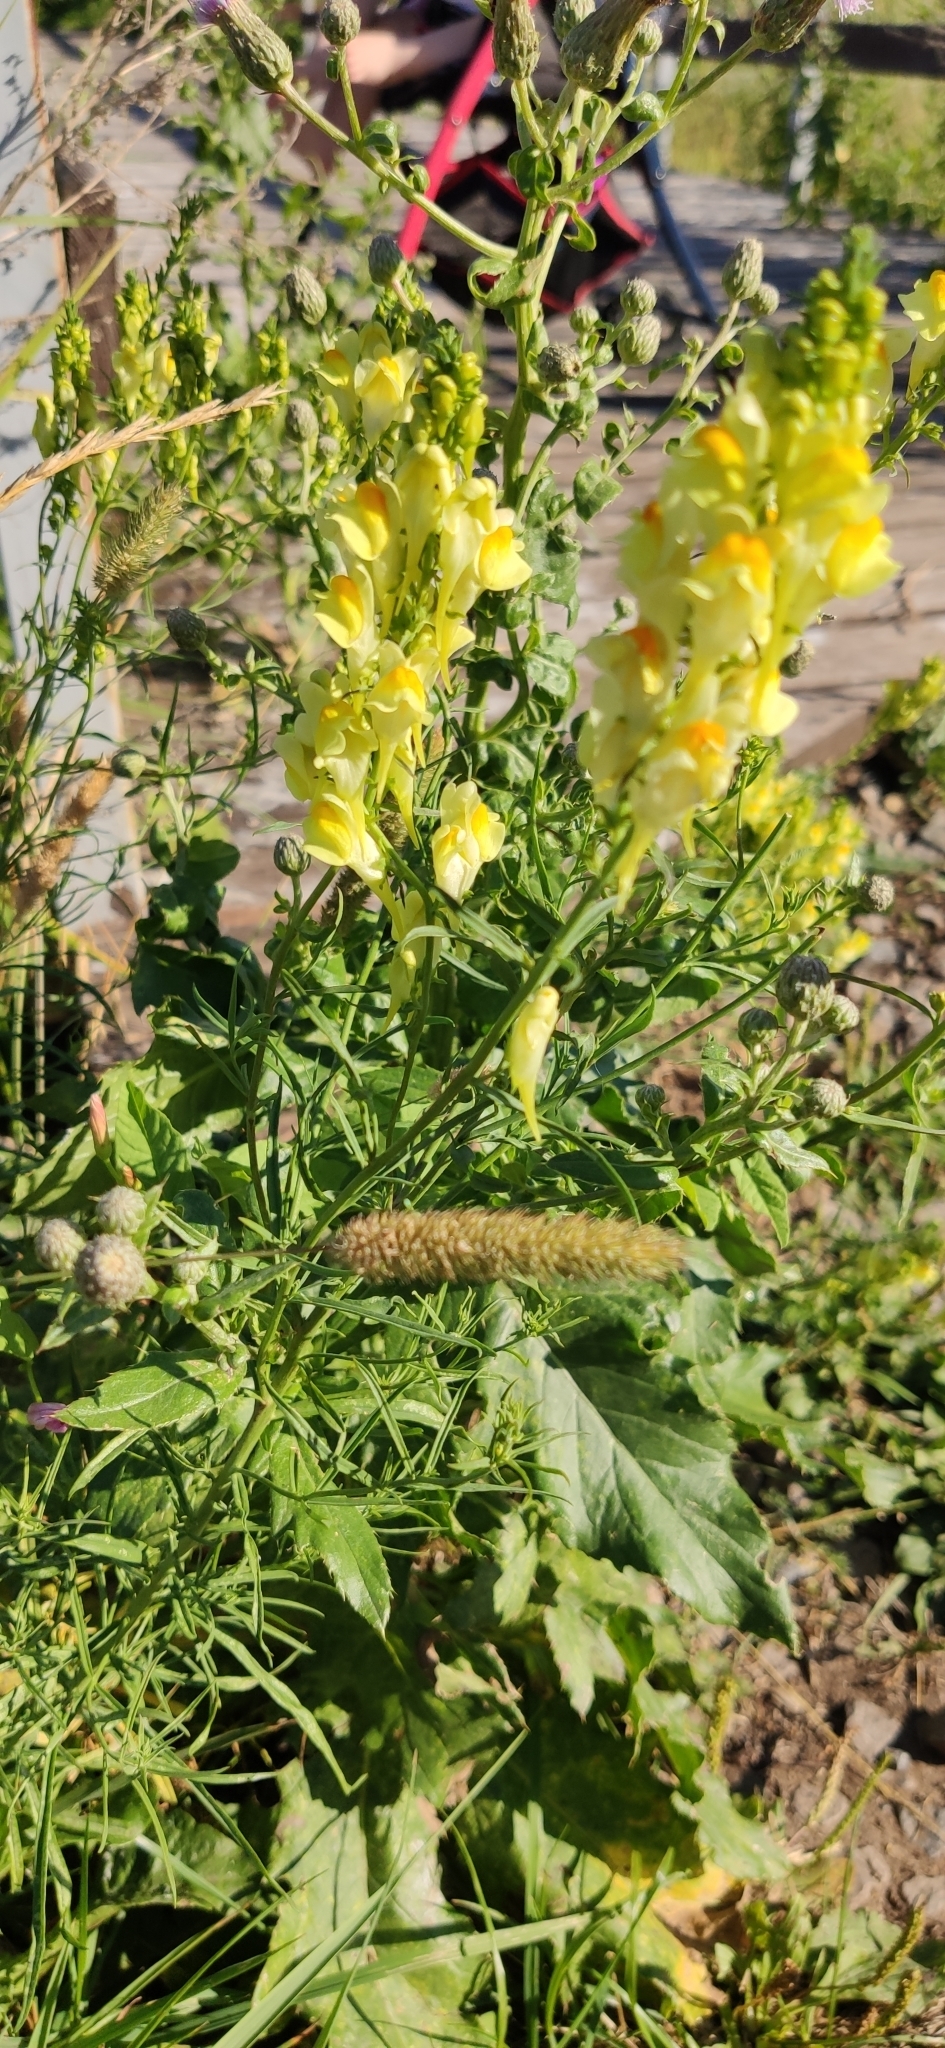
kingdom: Plantae
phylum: Tracheophyta
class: Magnoliopsida
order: Lamiales
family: Plantaginaceae
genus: Linaria
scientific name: Linaria vulgaris
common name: Butter and eggs
